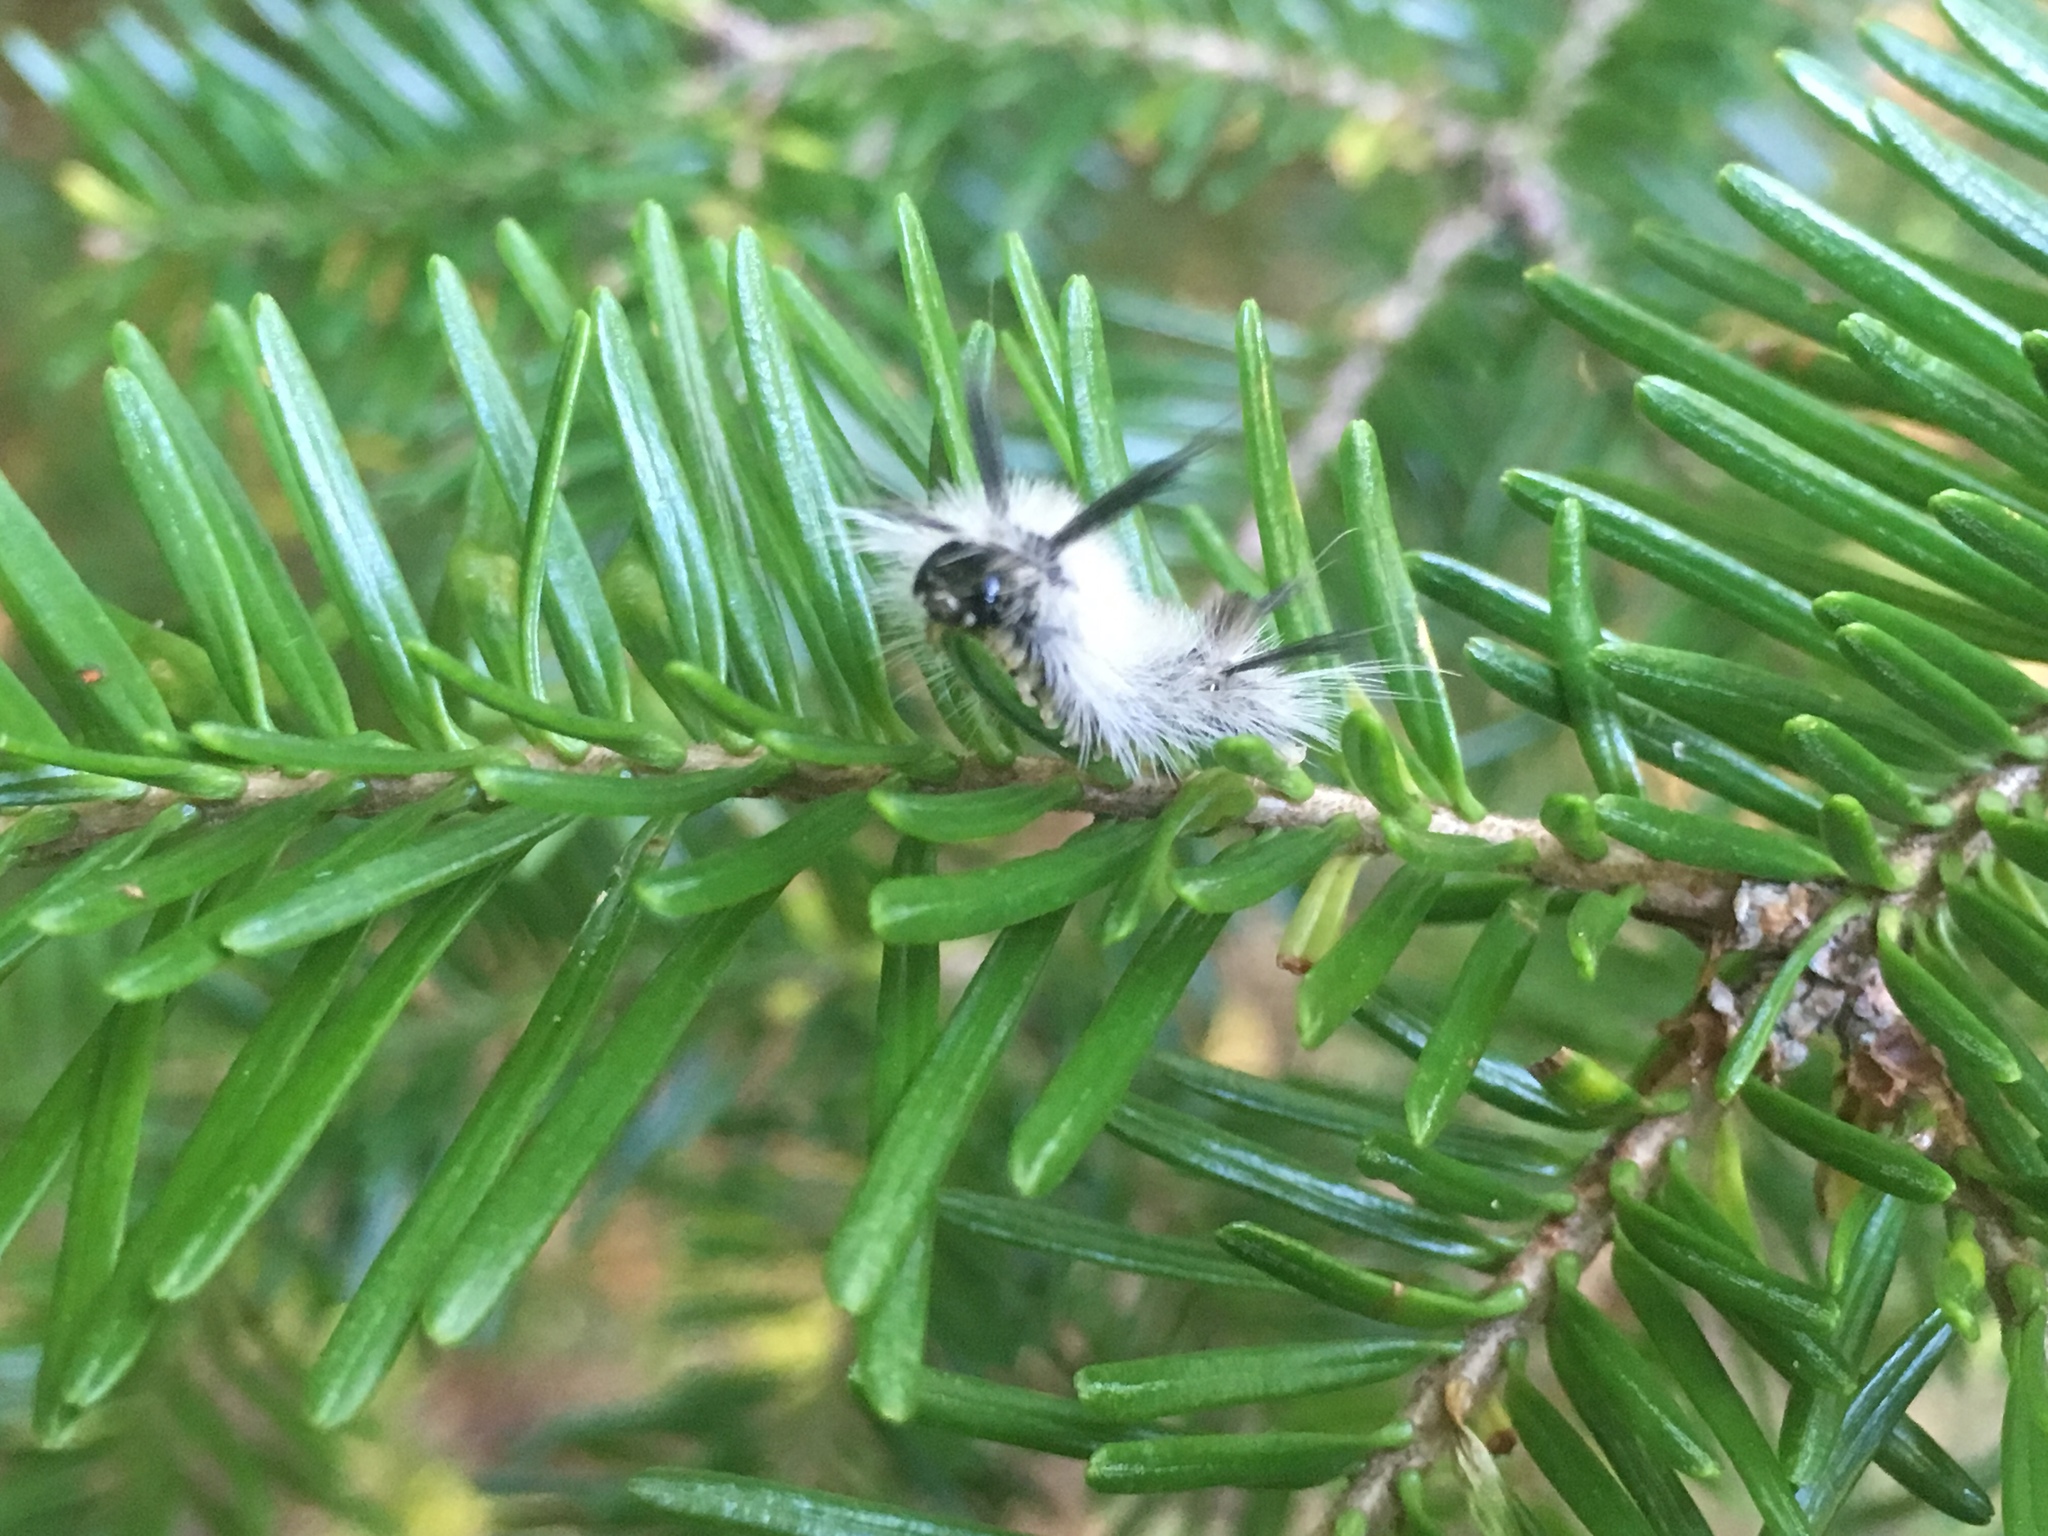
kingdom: Animalia
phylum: Arthropoda
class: Insecta
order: Lepidoptera
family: Erebidae
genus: Halysidota
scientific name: Halysidota tessellaris
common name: Banded tussock moth
